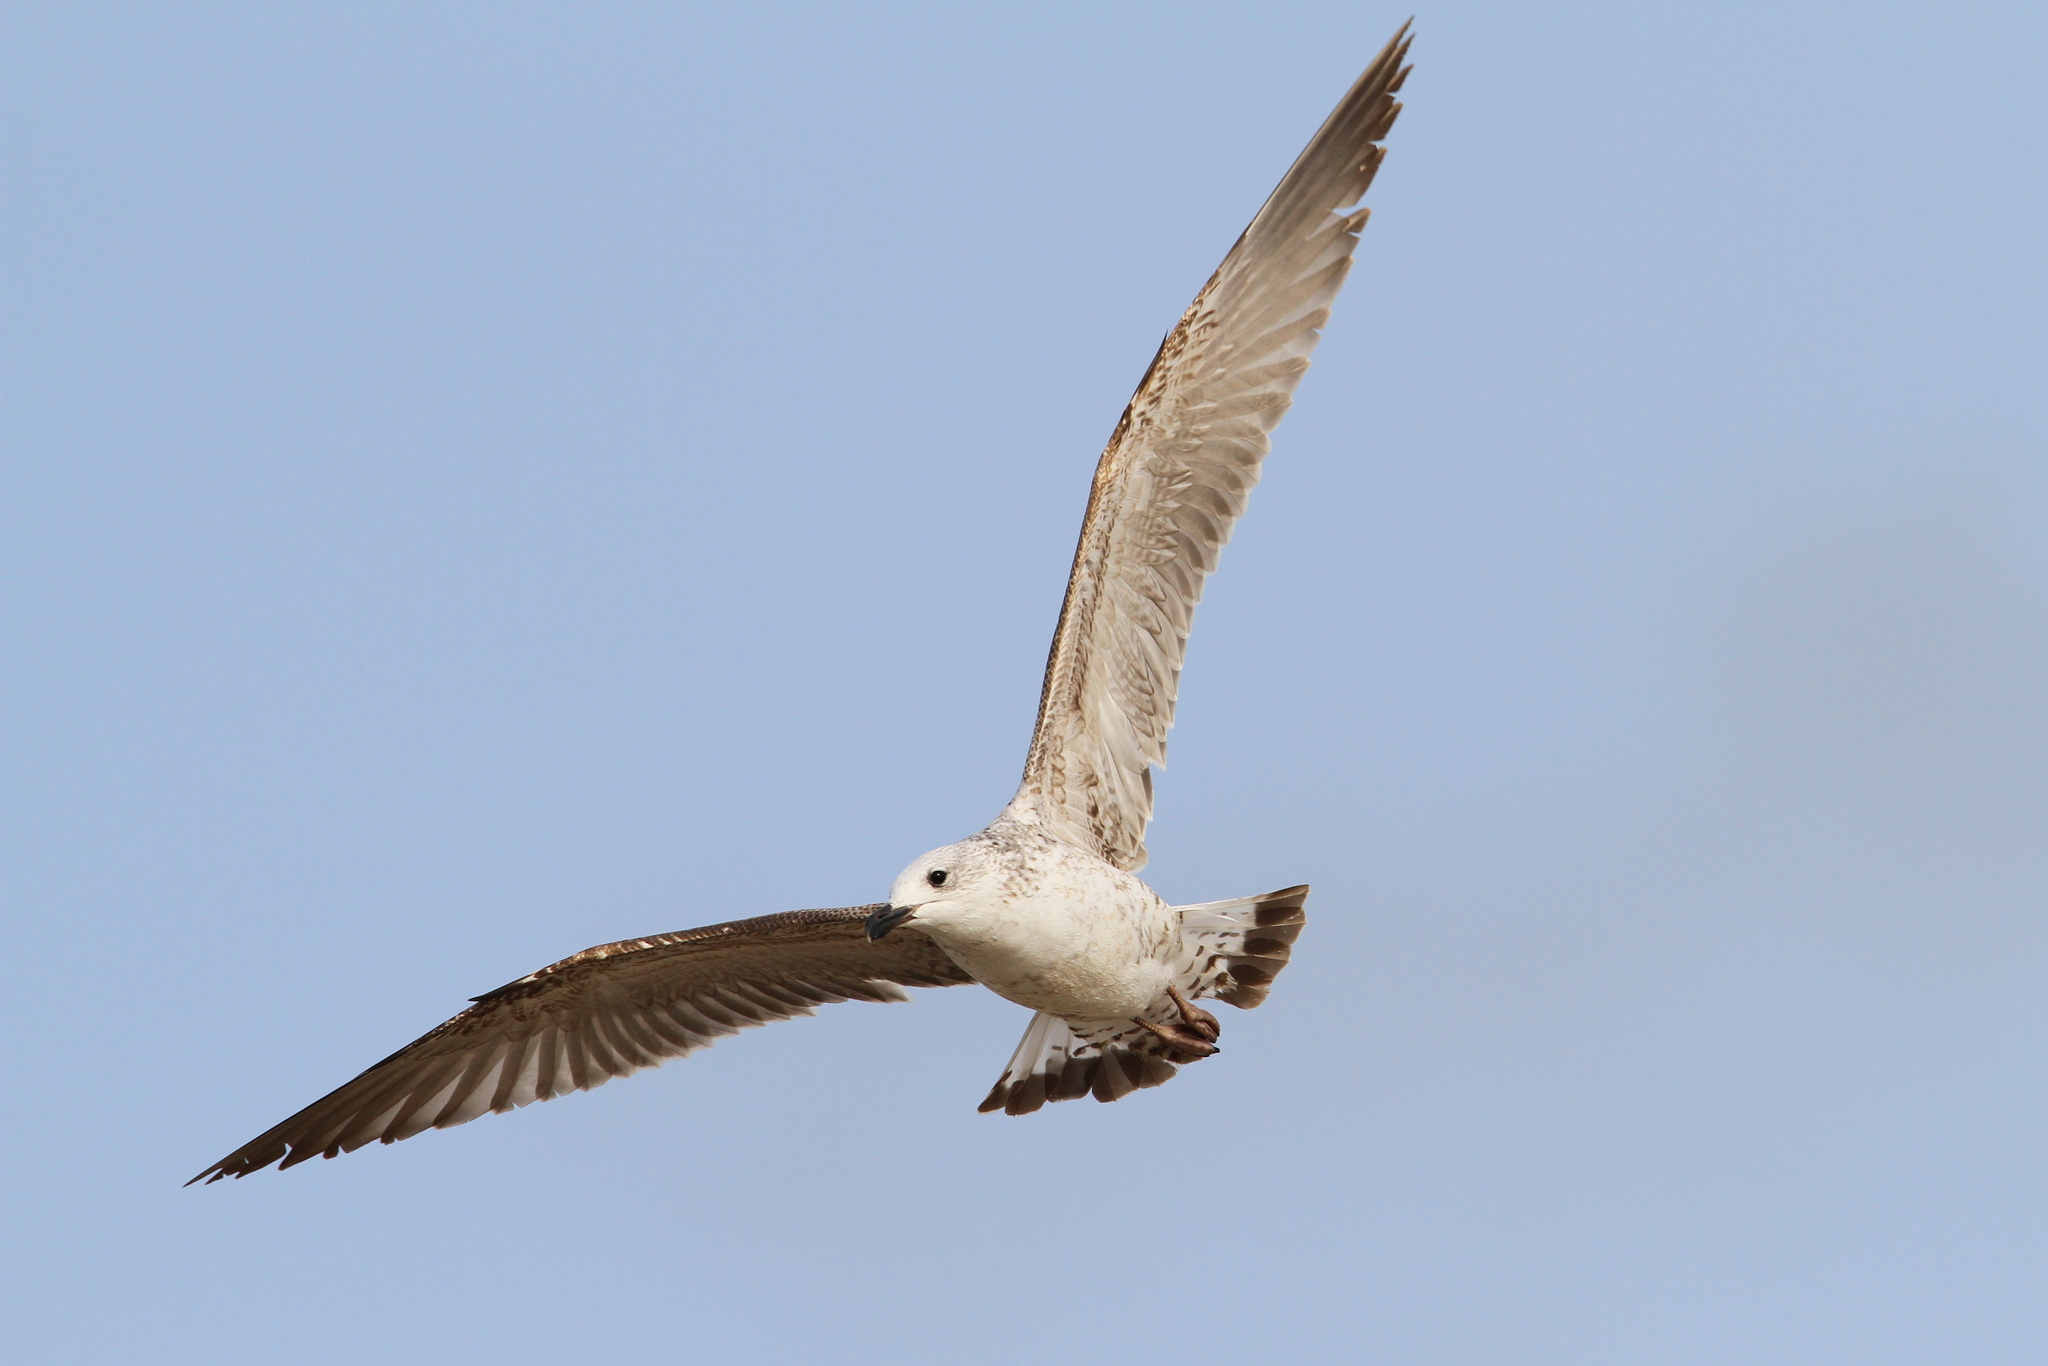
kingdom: Animalia
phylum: Chordata
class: Aves
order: Charadriiformes
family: Laridae
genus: Larus
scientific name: Larus armenicus
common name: Armenian gull
